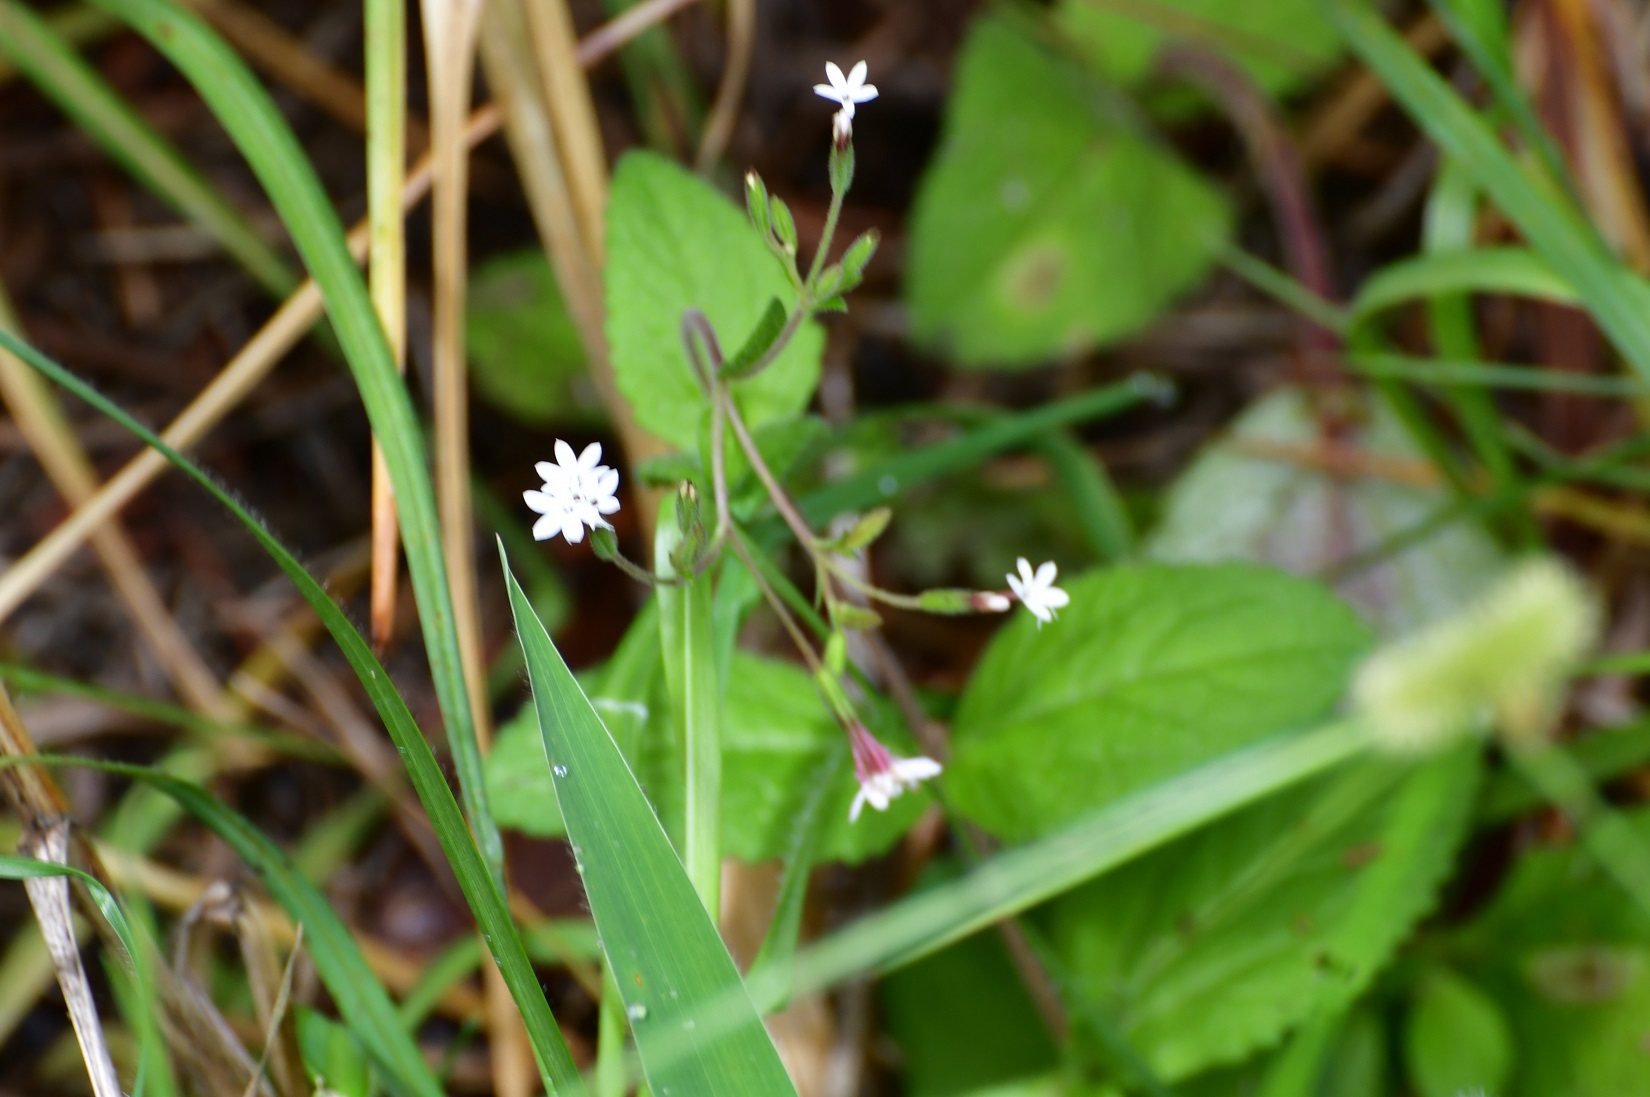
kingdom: Plantae
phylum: Tracheophyta
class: Magnoliopsida
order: Asterales
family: Asteraceae
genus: Stevia
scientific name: Stevia elatior
